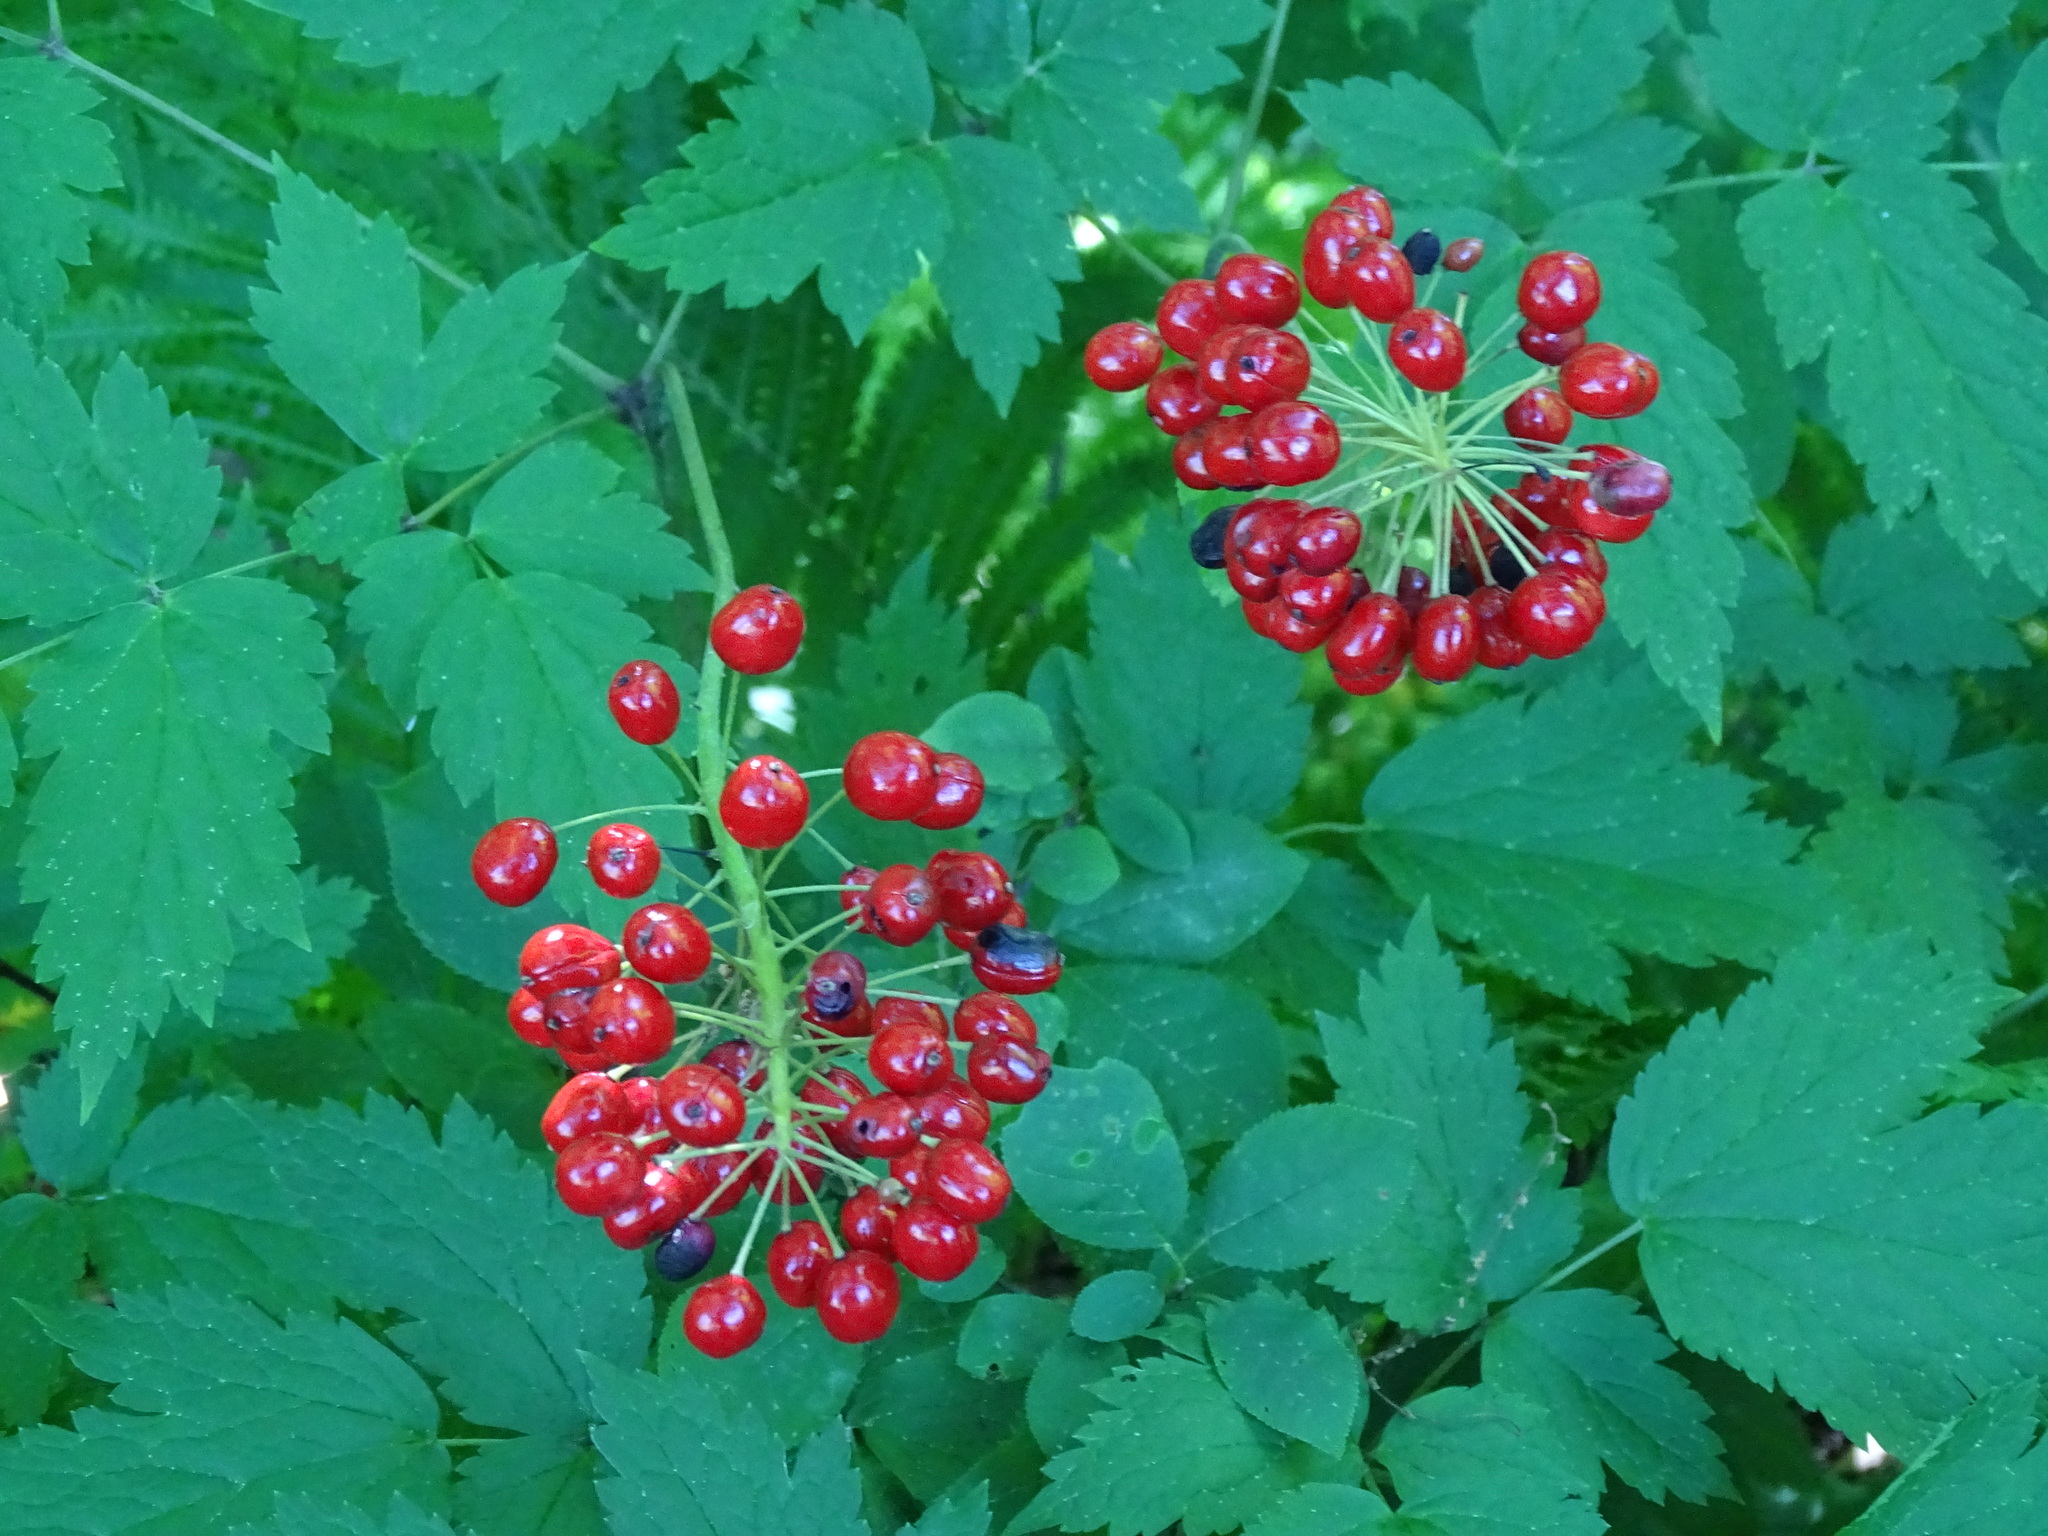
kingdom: Plantae
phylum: Tracheophyta
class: Magnoliopsida
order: Ranunculales
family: Ranunculaceae
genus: Actaea
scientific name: Actaea rubra
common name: Red baneberry
